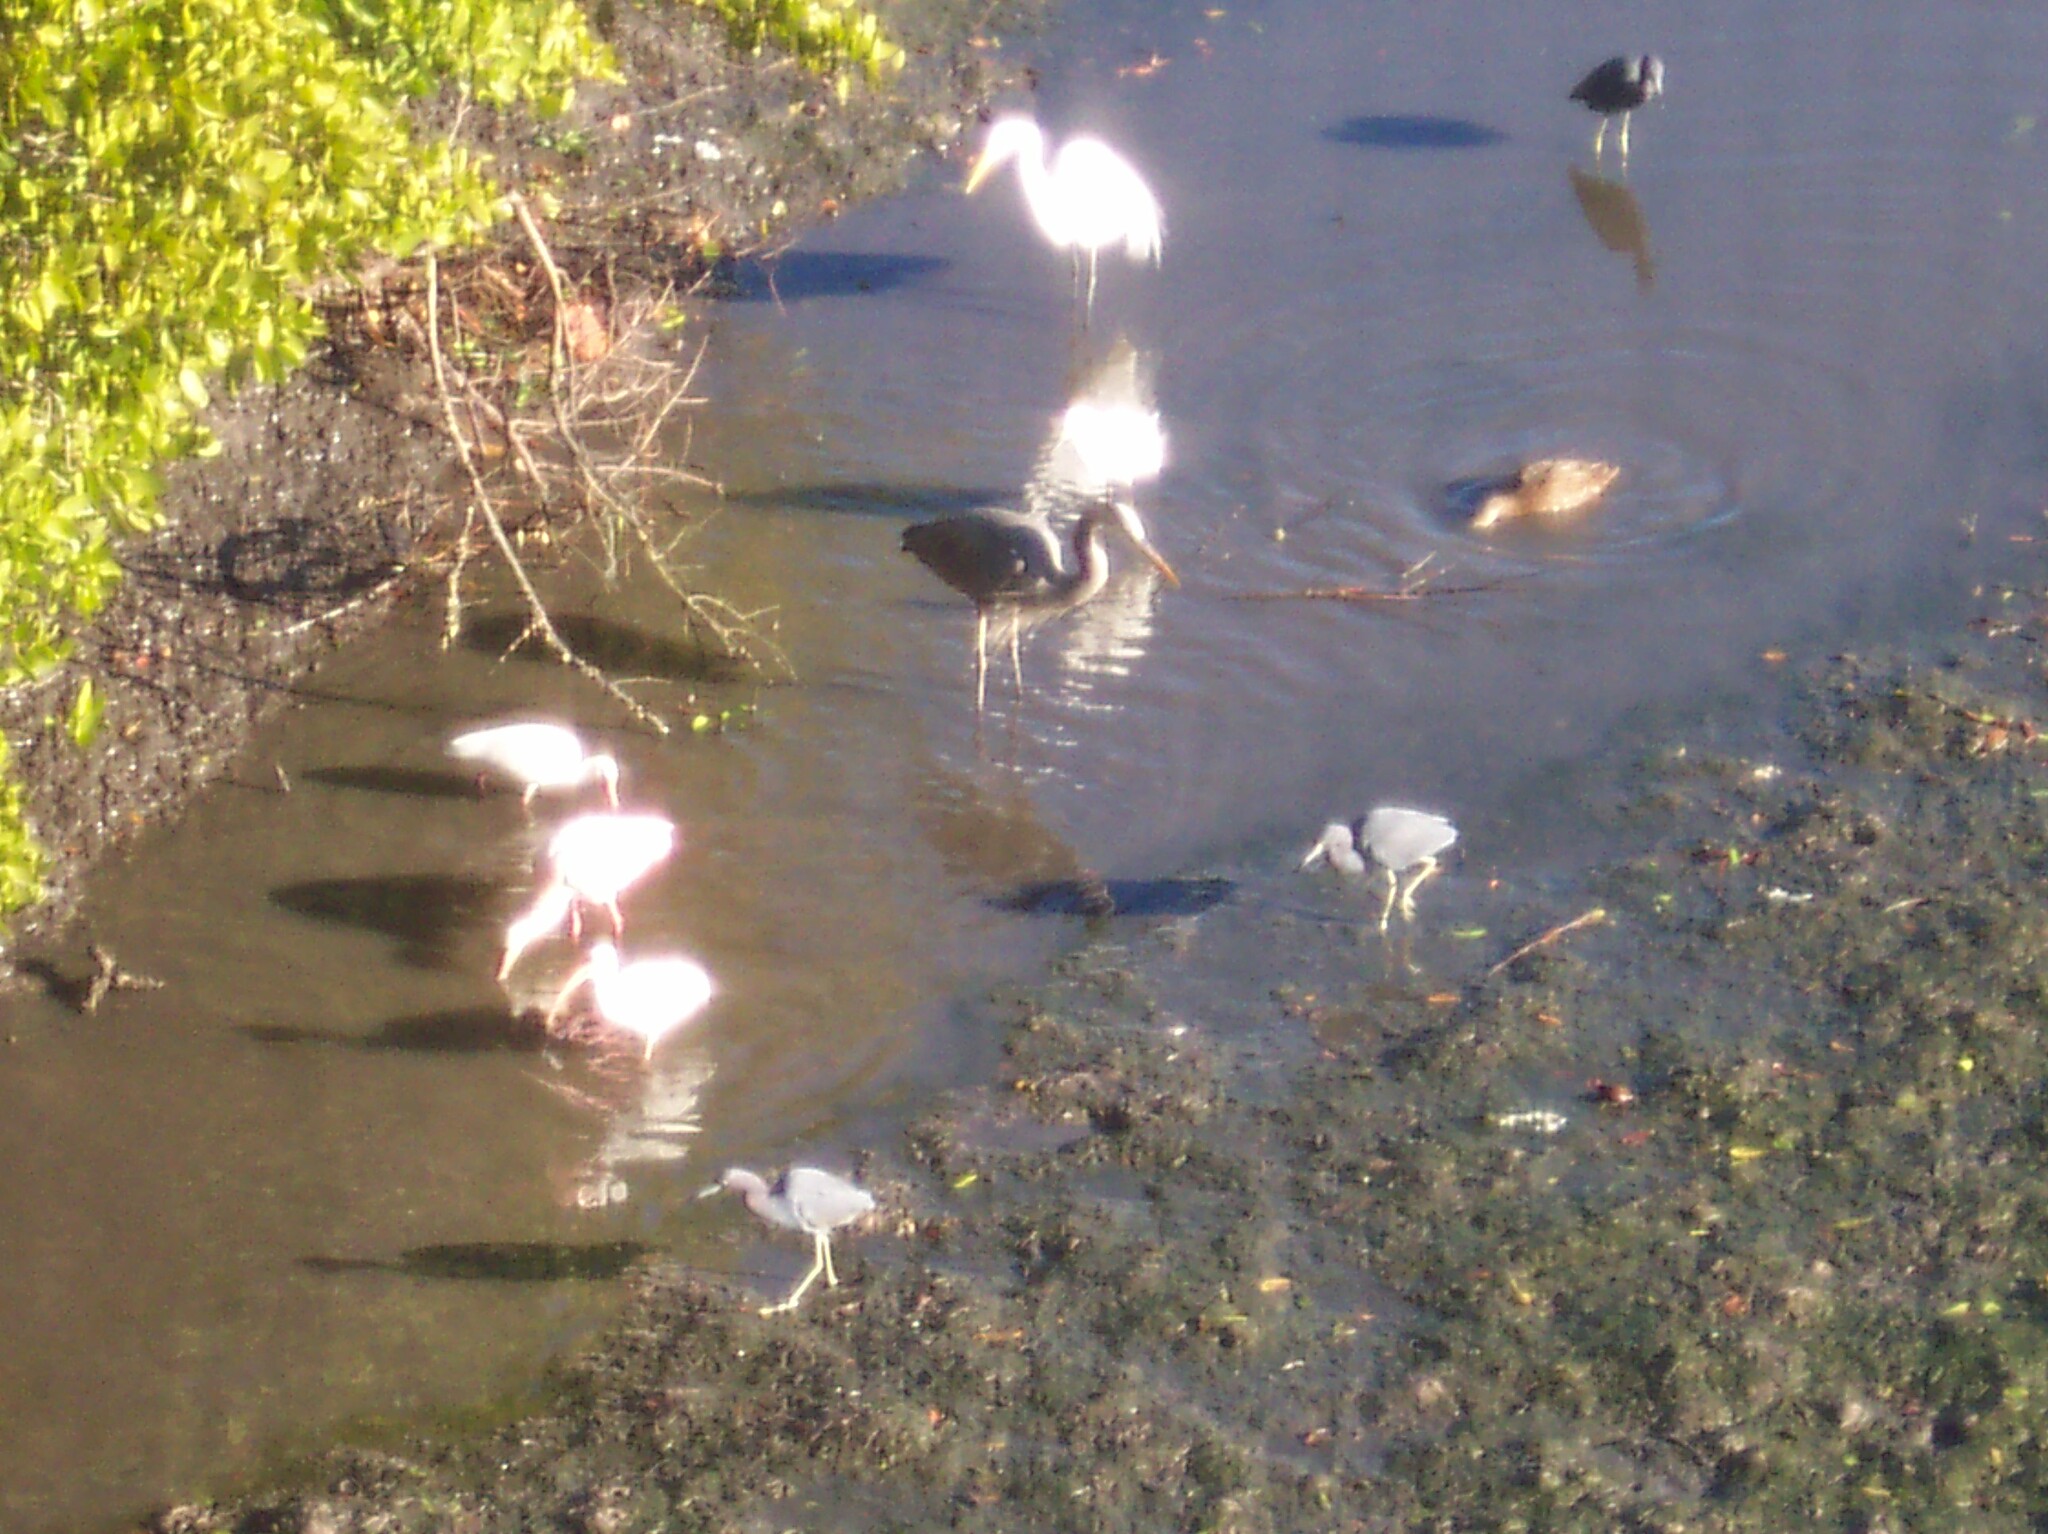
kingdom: Animalia
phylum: Chordata
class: Aves
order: Pelecaniformes
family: Ardeidae
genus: Ardea
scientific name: Ardea alba
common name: Great egret
